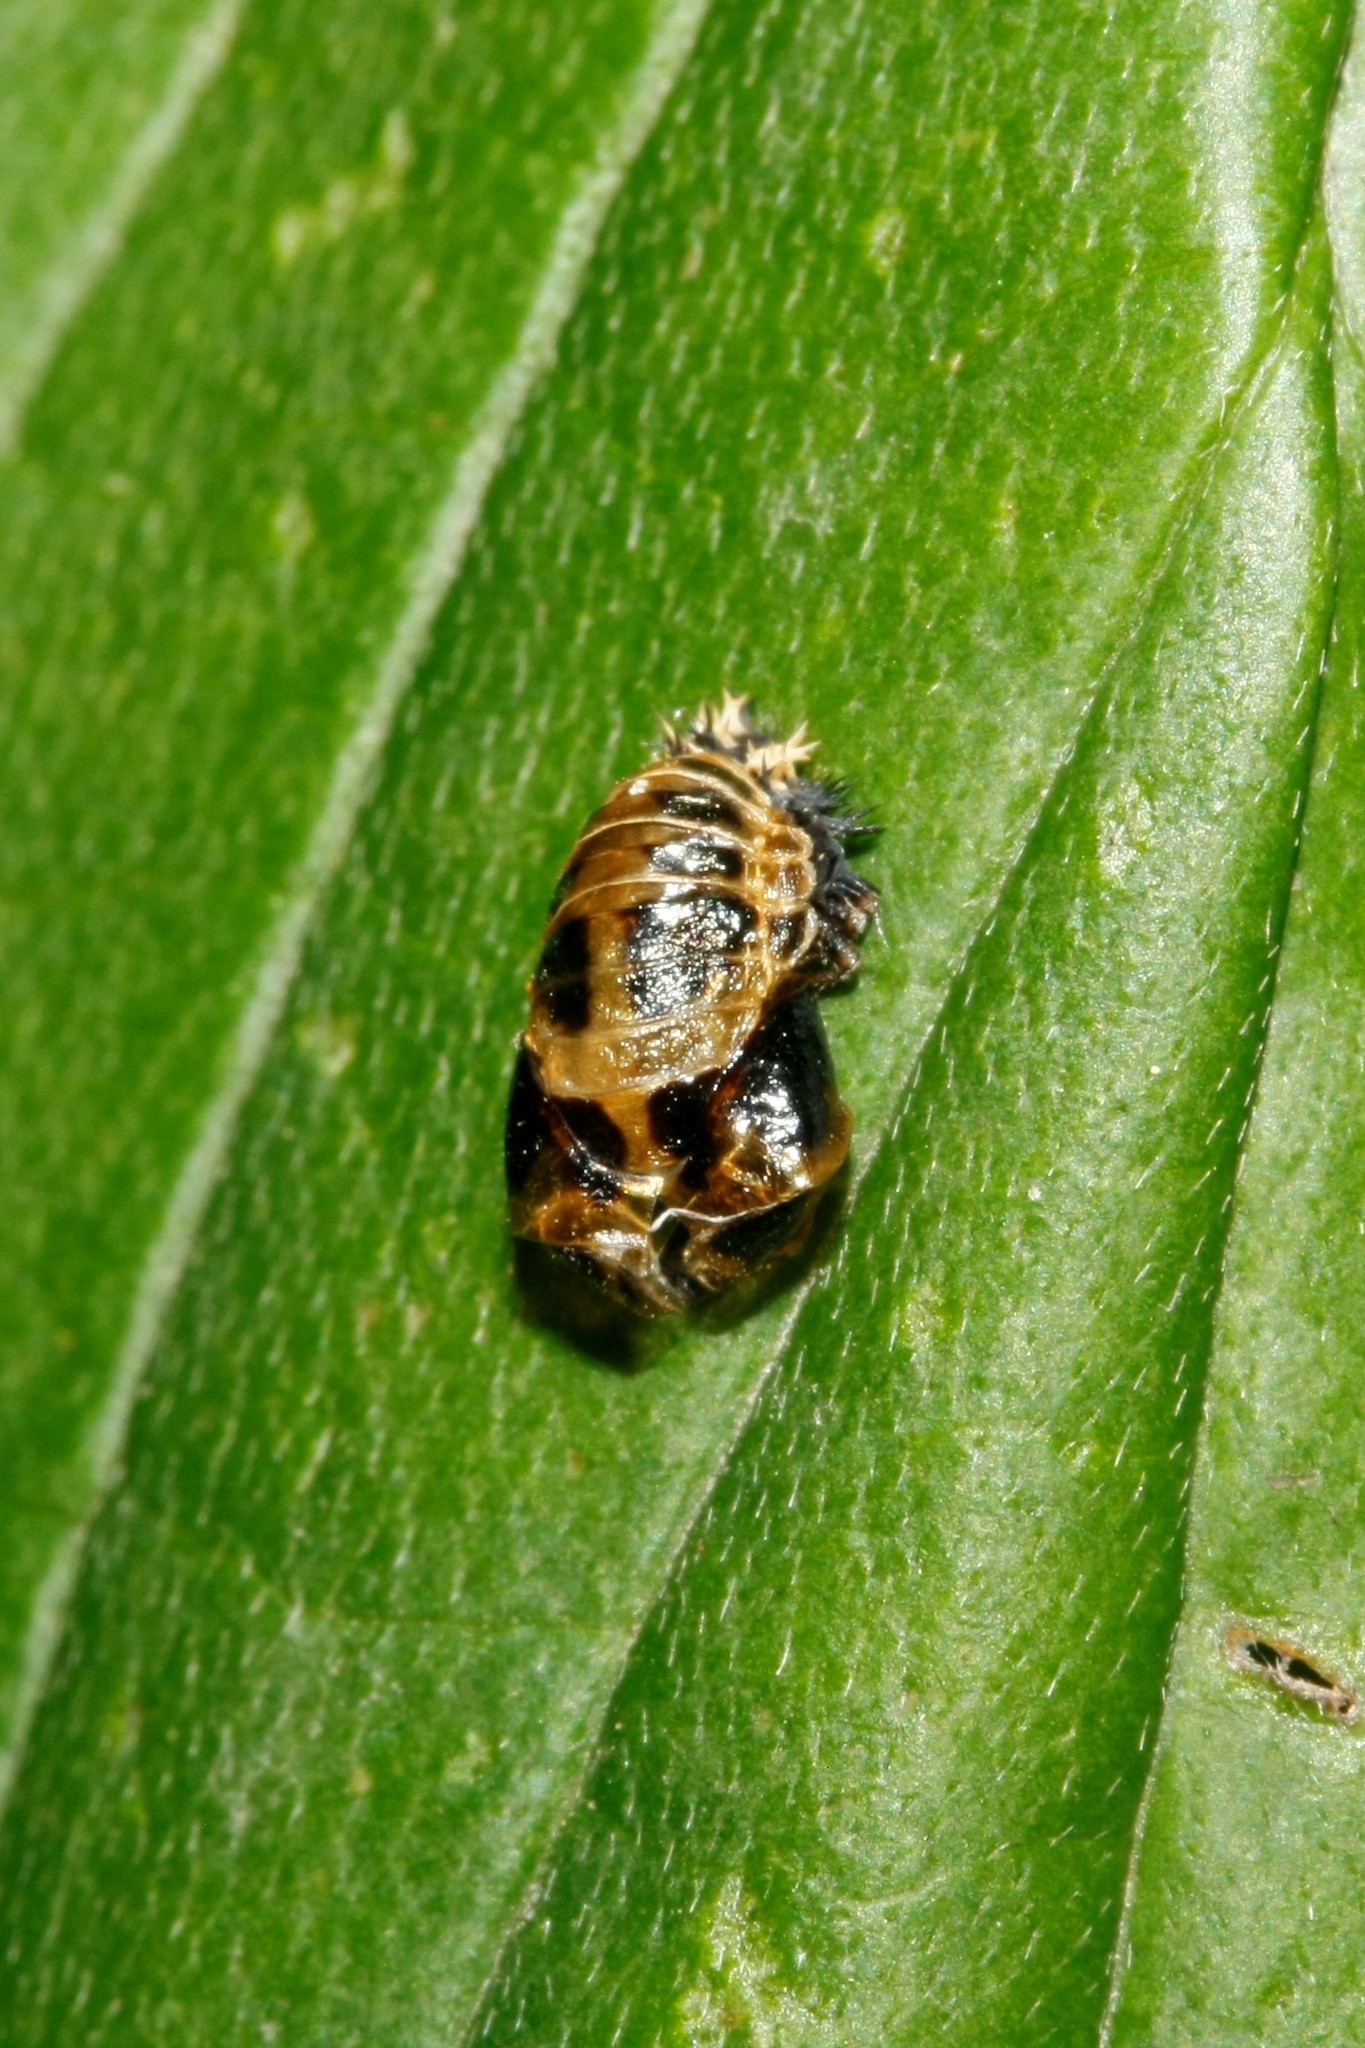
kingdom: Animalia
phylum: Arthropoda
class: Insecta
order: Coleoptera
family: Coccinellidae
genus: Harmonia
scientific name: Harmonia axyridis
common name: Harlequin ladybird
